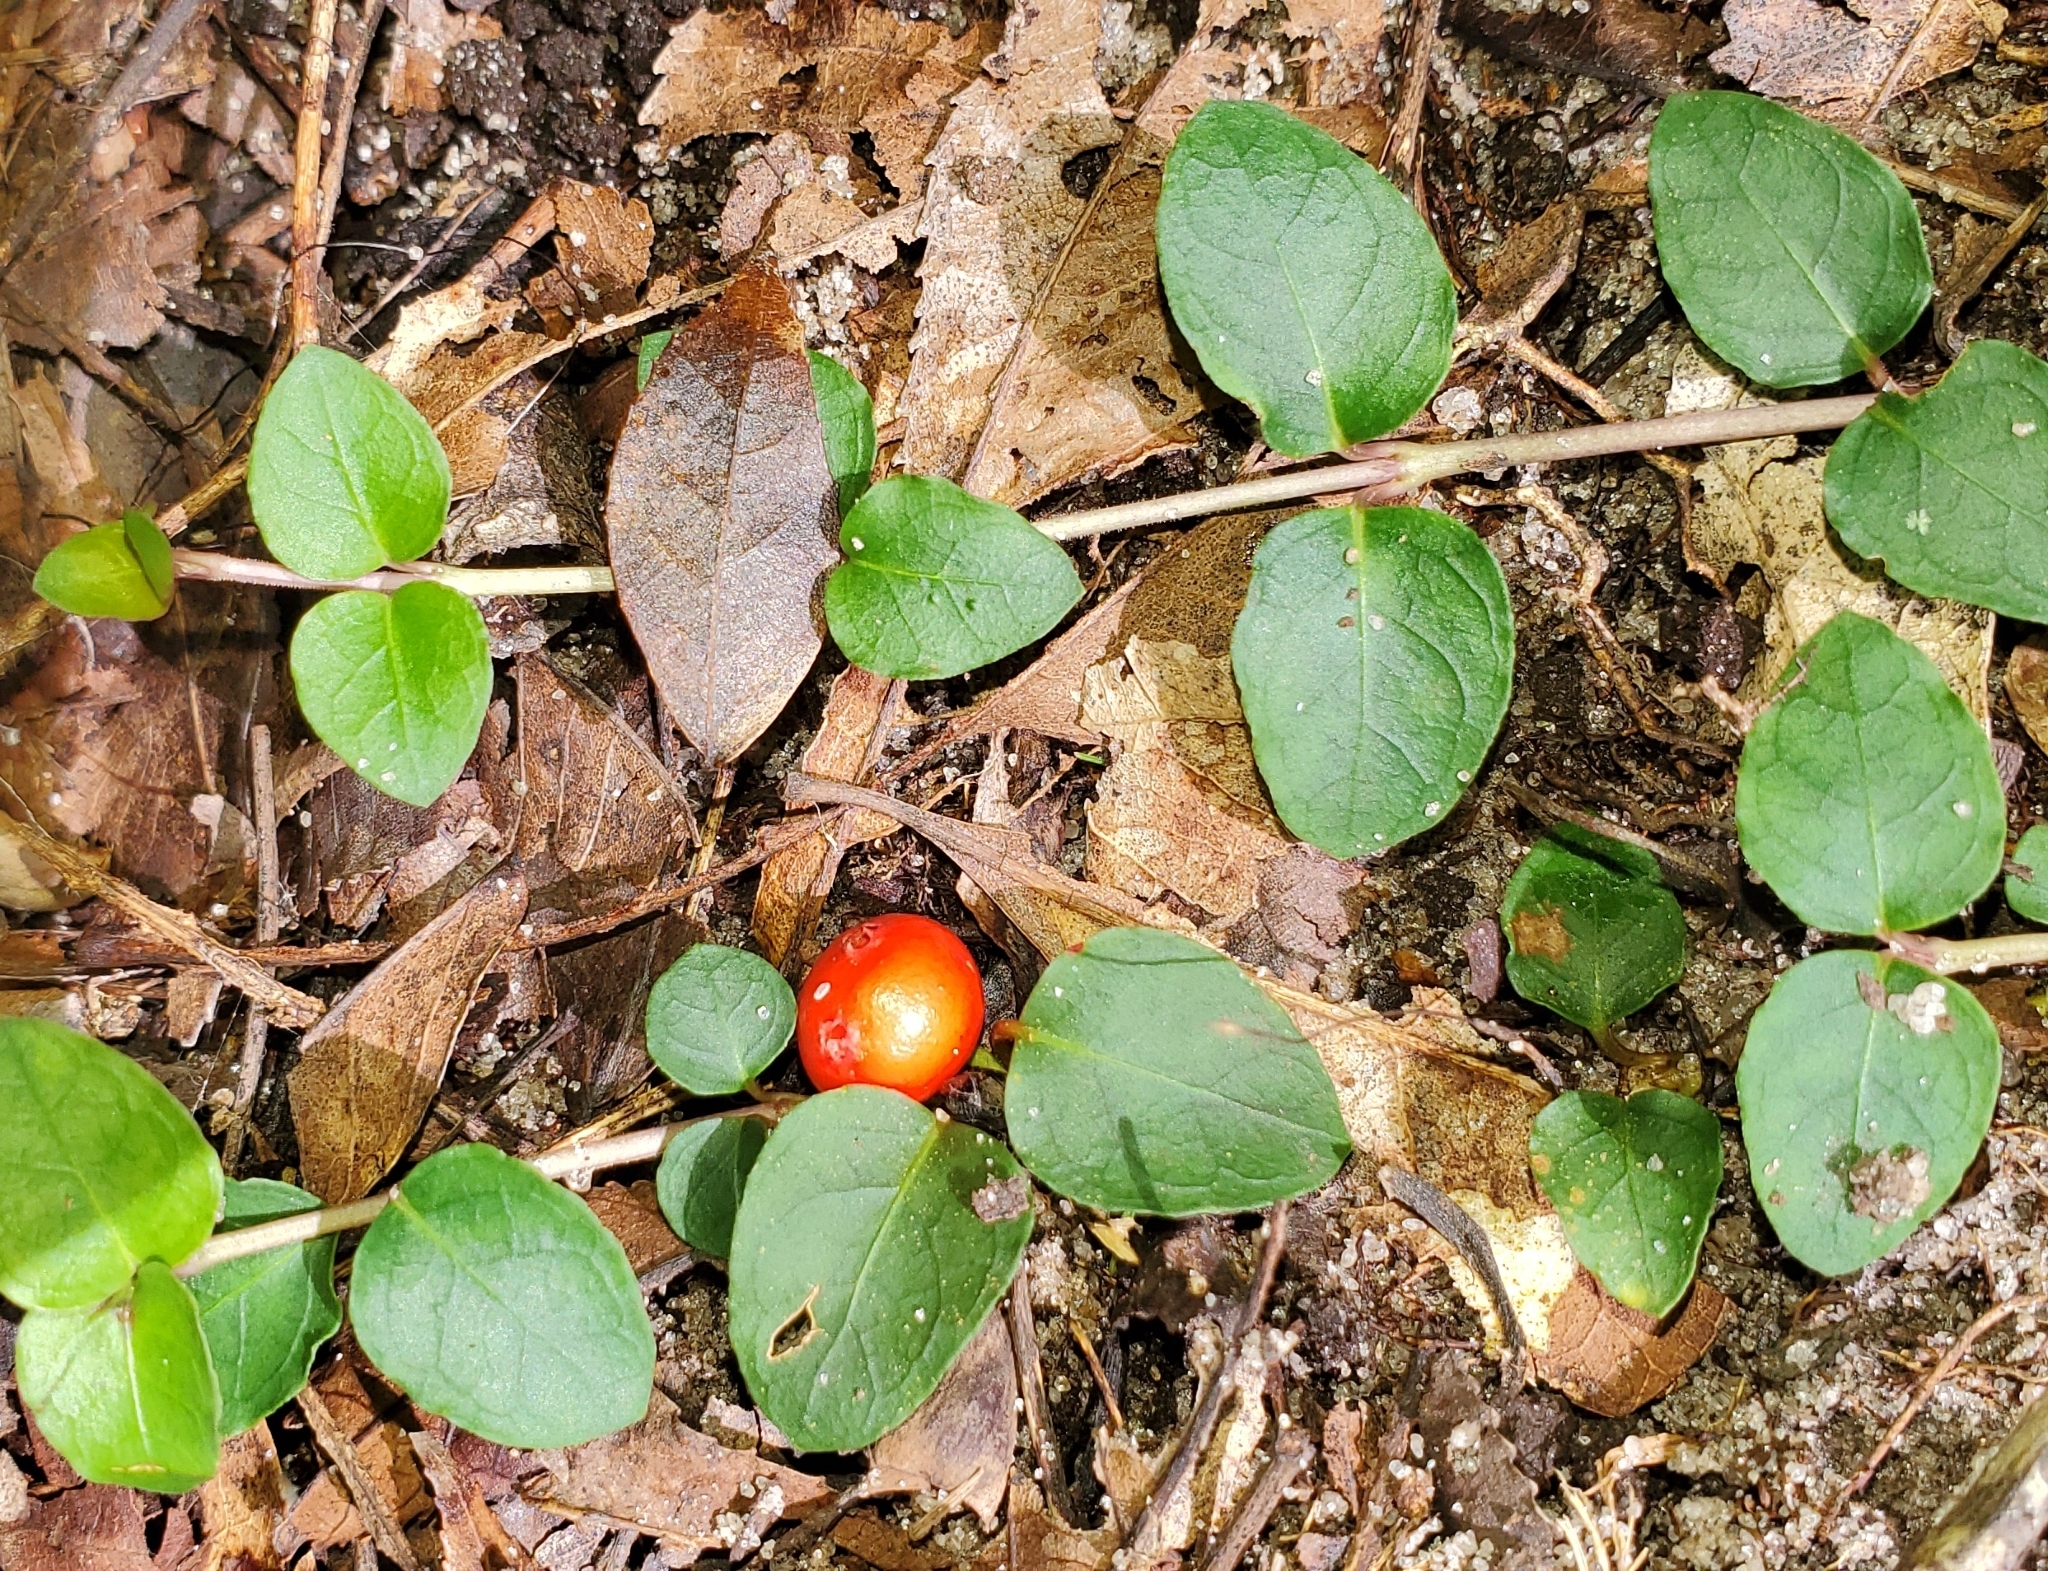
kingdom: Plantae
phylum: Tracheophyta
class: Magnoliopsida
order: Gentianales
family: Rubiaceae
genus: Mitchella
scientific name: Mitchella repens
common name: Partridge-berry
